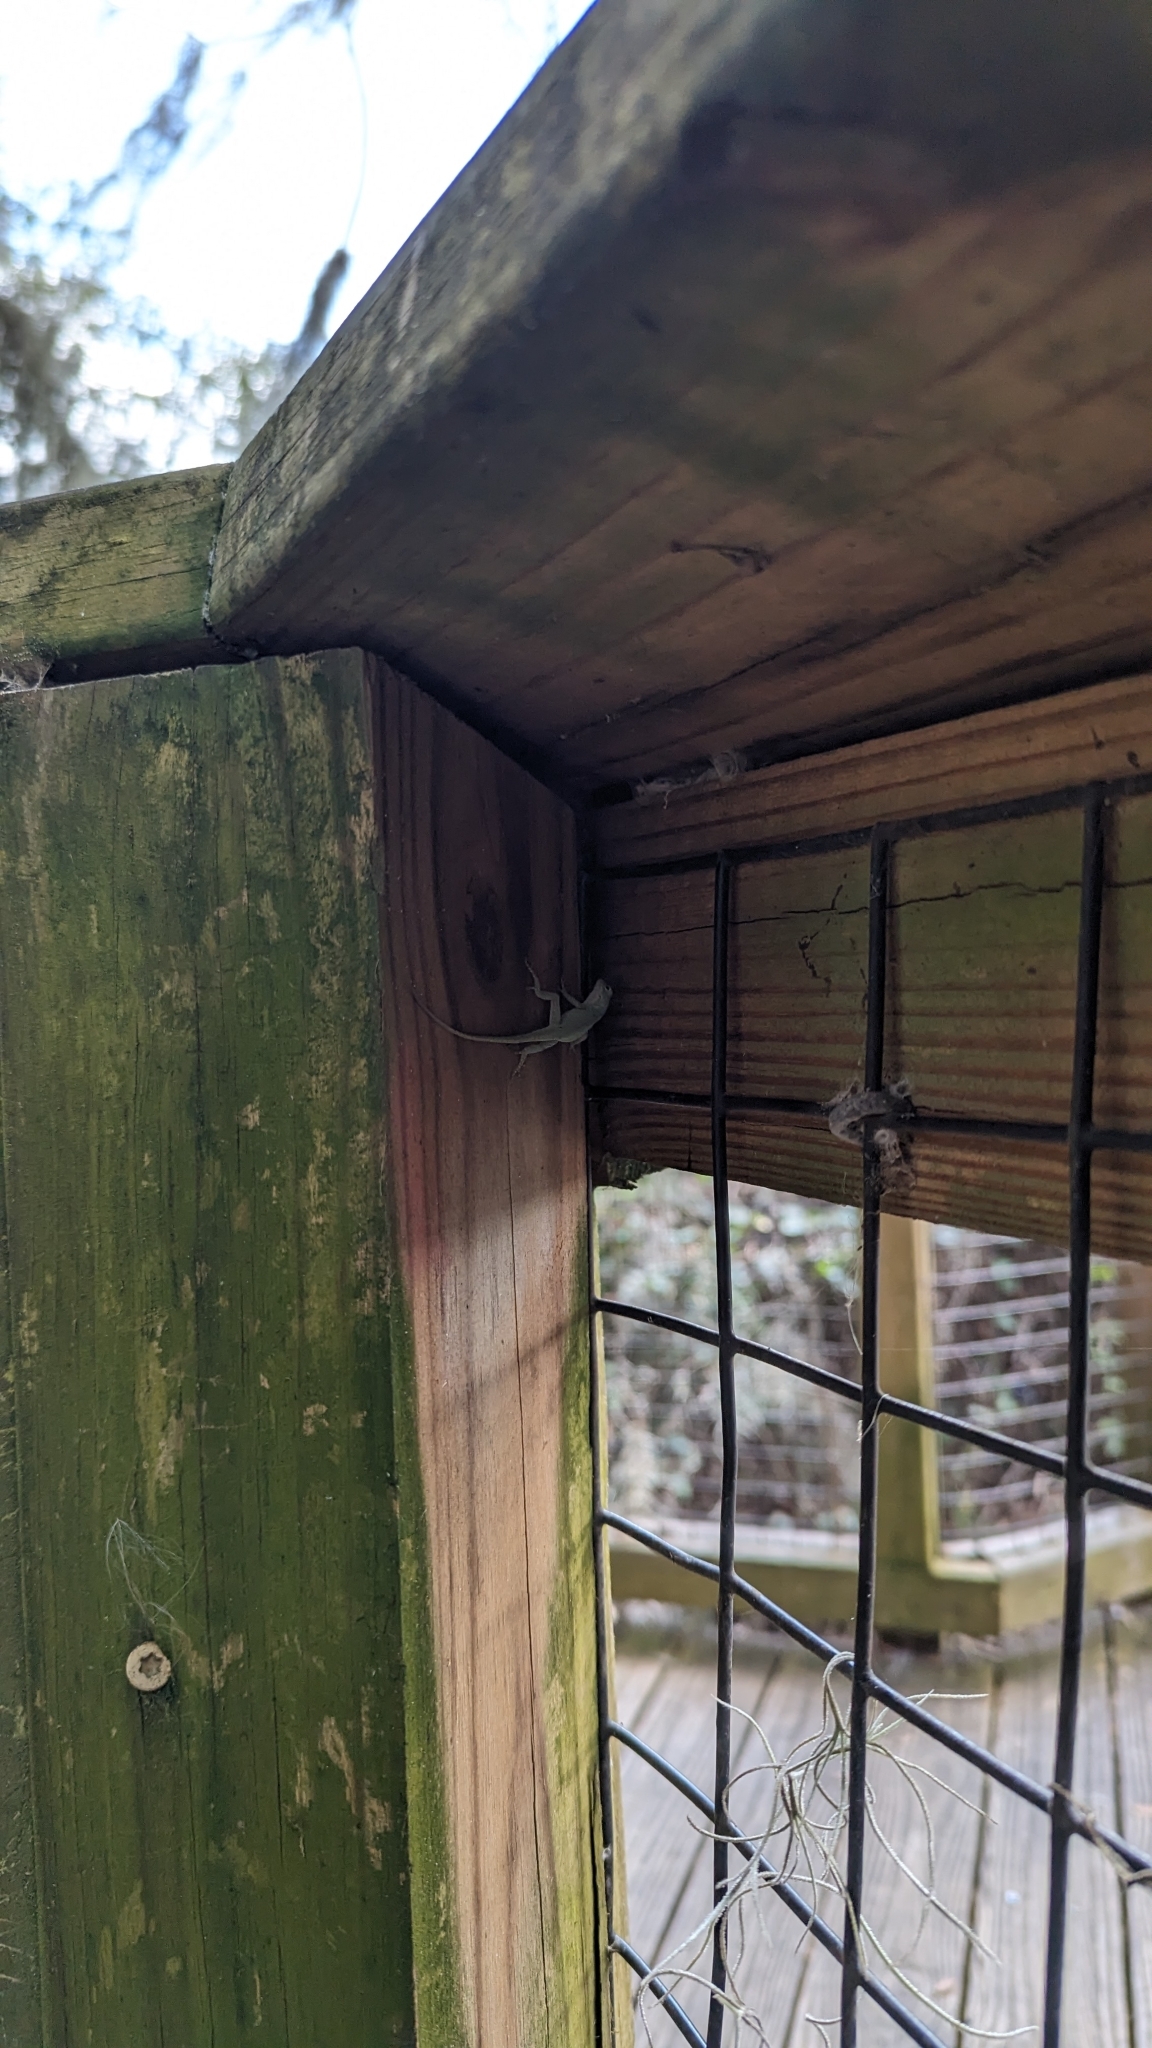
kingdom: Animalia
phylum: Chordata
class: Squamata
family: Dactyloidae
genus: Anolis
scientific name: Anolis carolinensis
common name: Green anole
